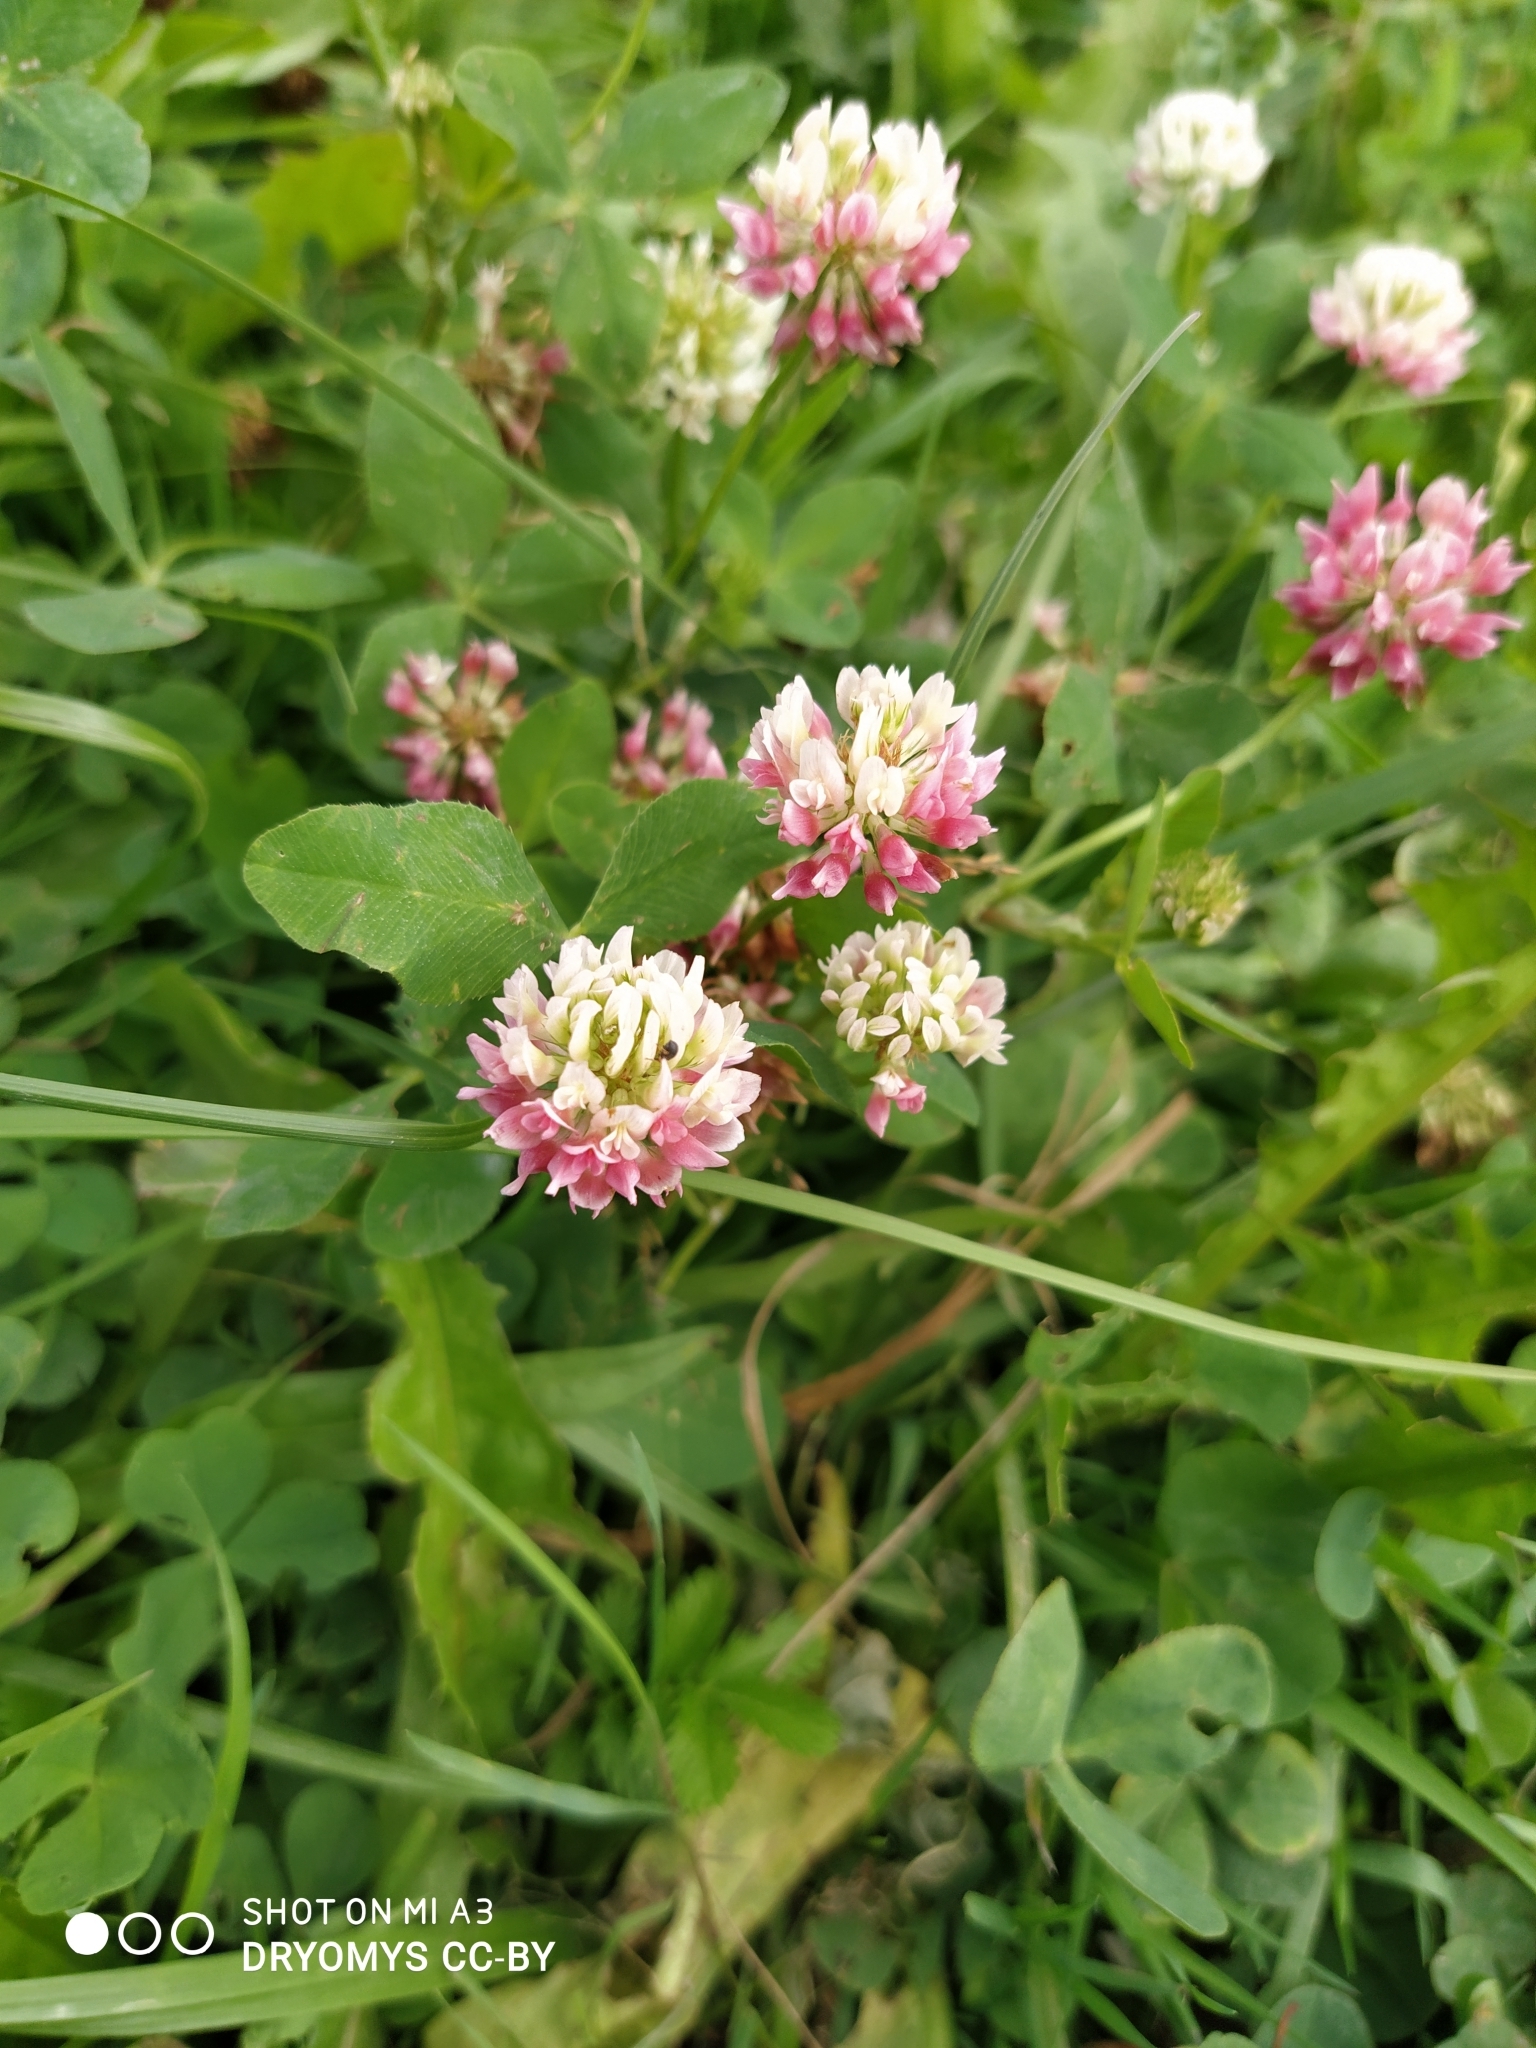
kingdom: Plantae
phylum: Tracheophyta
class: Magnoliopsida
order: Fabales
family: Fabaceae
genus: Trifolium
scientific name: Trifolium hybridum
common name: Alsike clover
